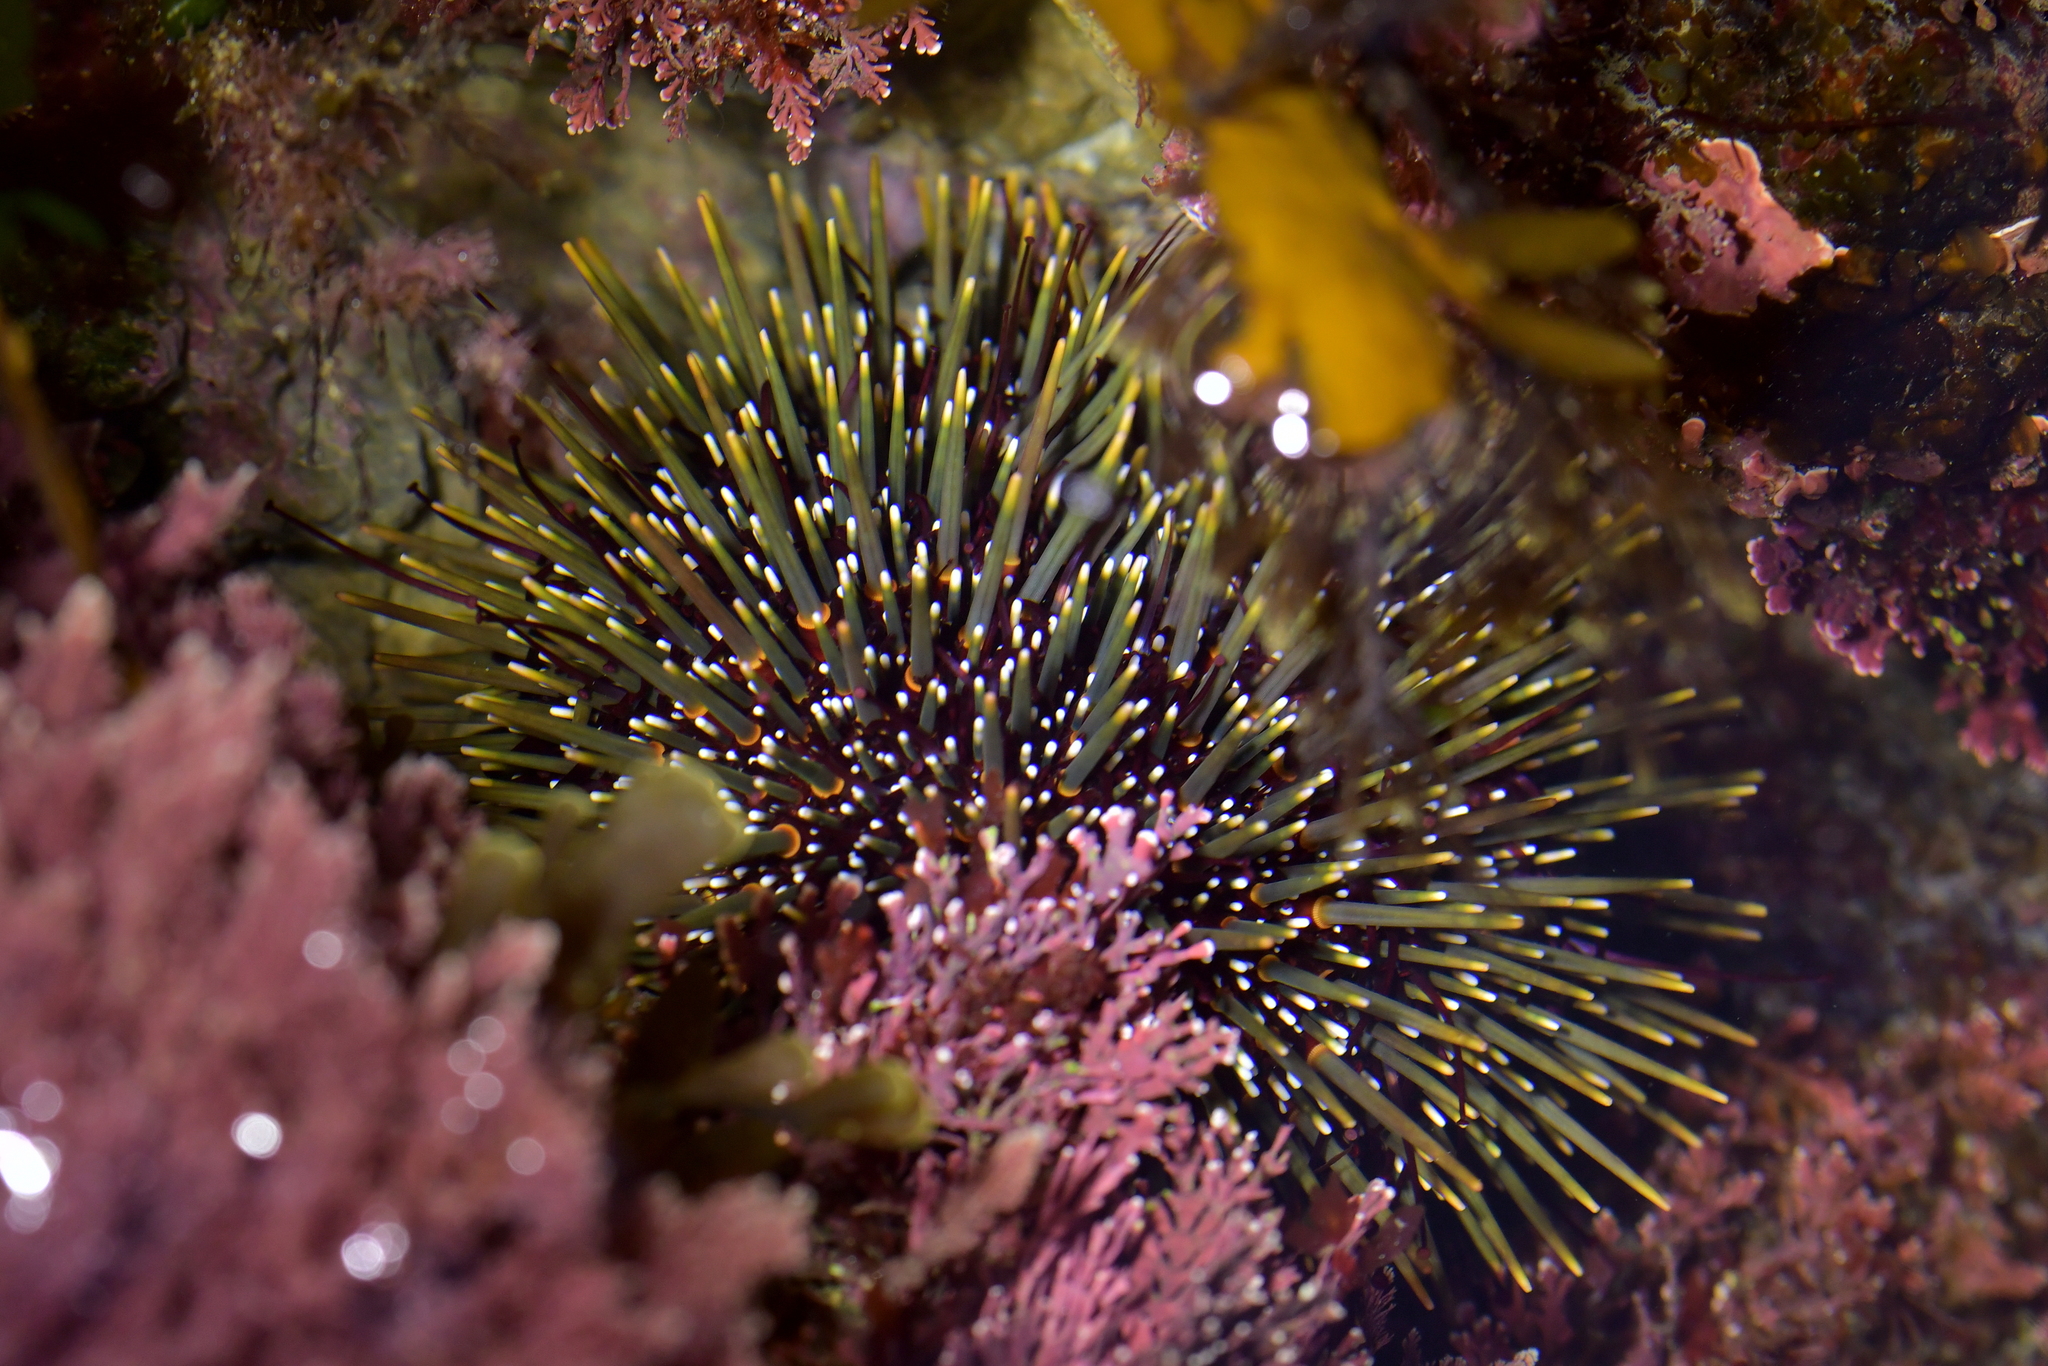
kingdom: Animalia
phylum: Echinodermata
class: Echinoidea
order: Camarodonta
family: Echinometridae
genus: Evechinus
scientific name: Evechinus chloroticus
